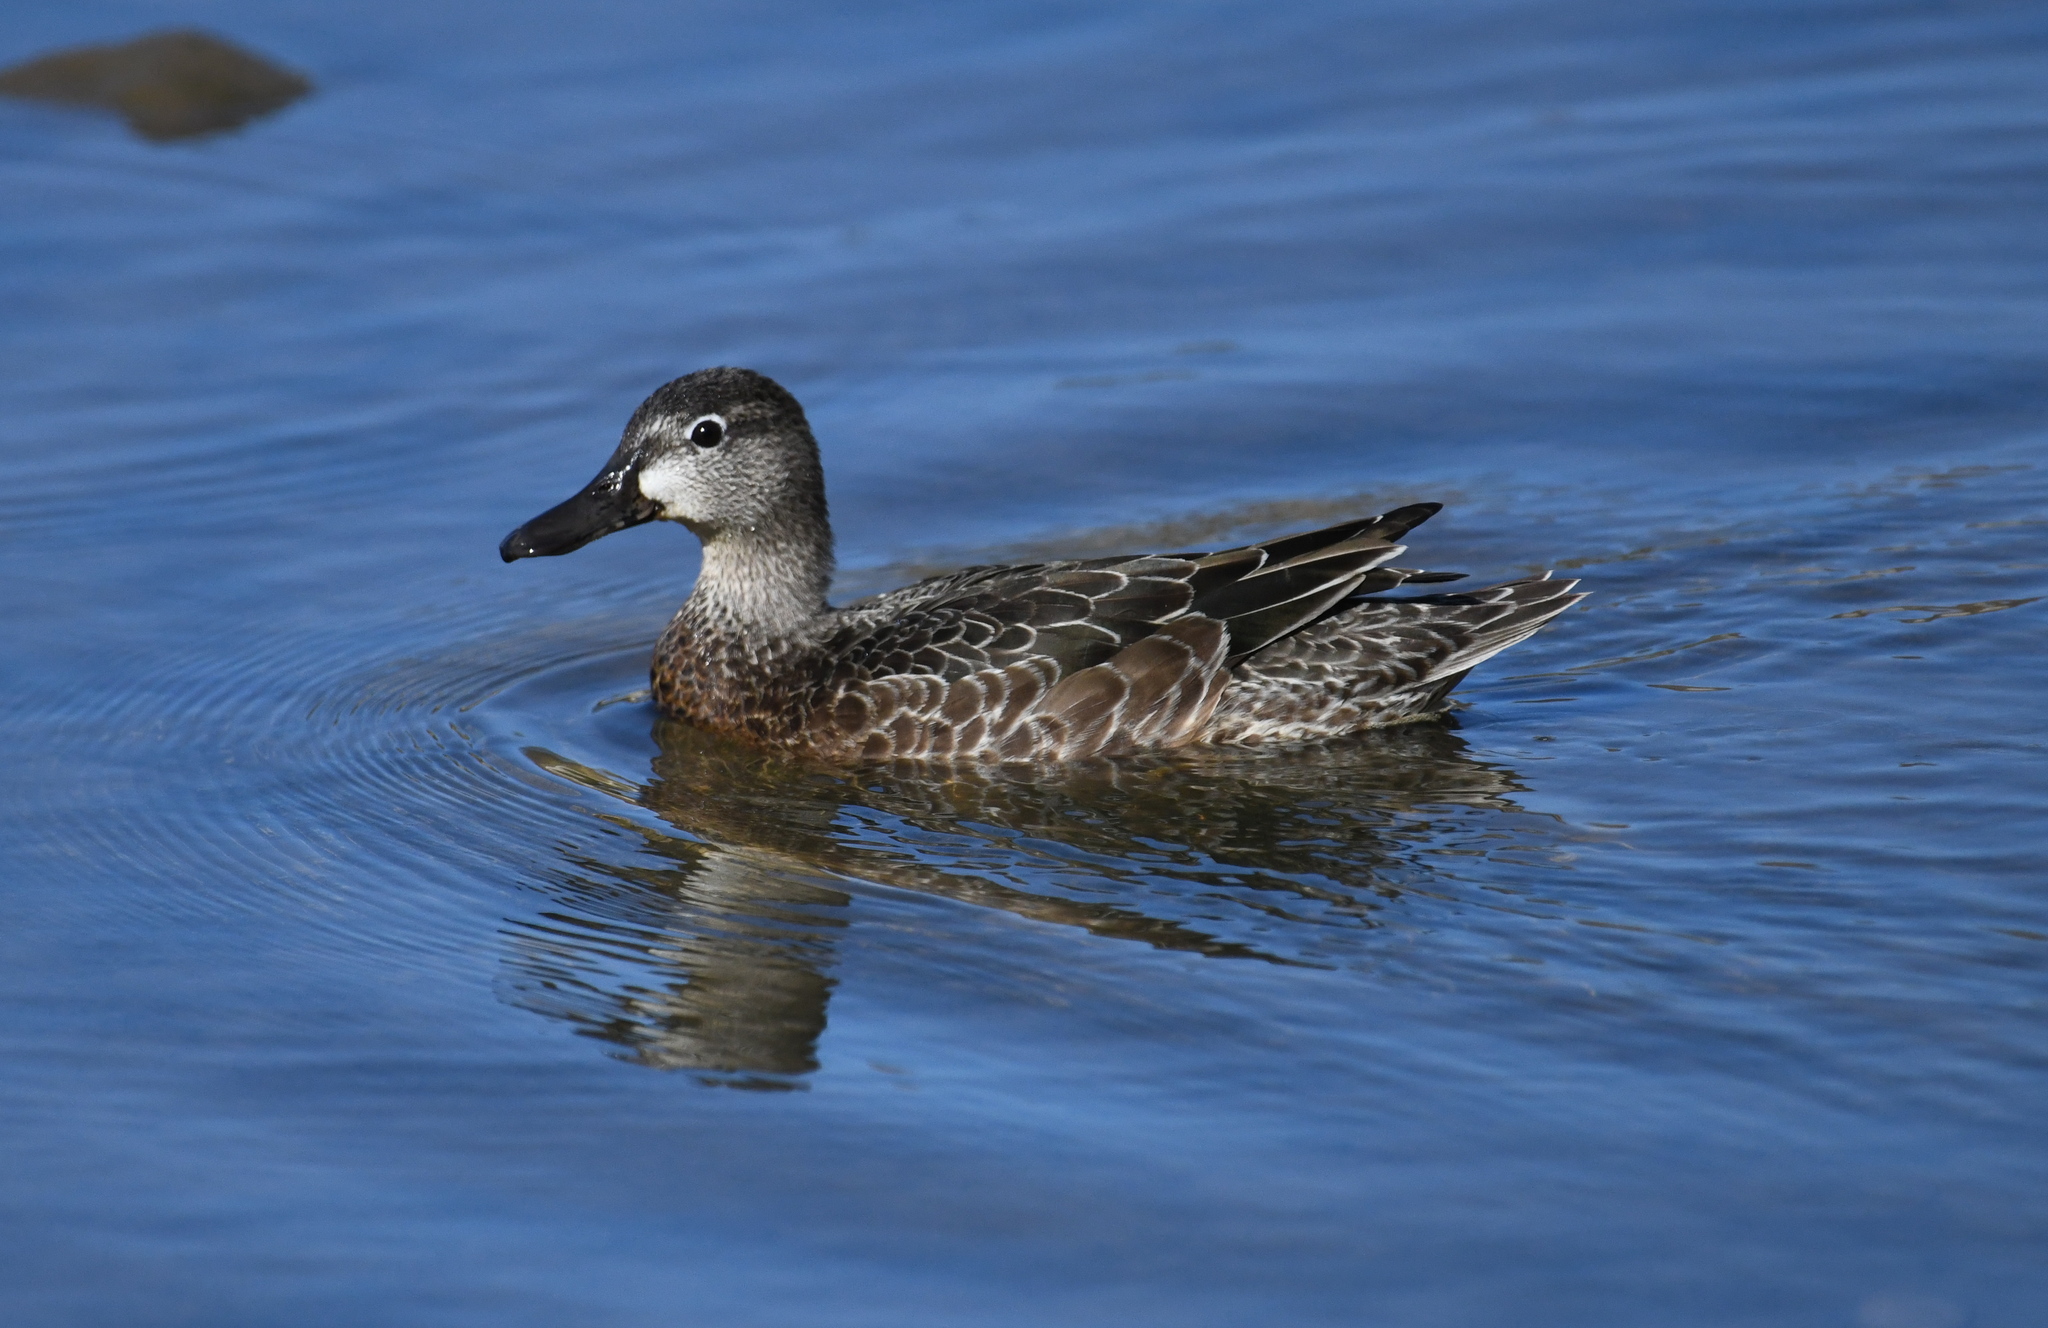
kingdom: Animalia
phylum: Chordata
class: Aves
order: Anseriformes
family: Anatidae
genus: Spatula
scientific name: Spatula discors
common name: Blue-winged teal
